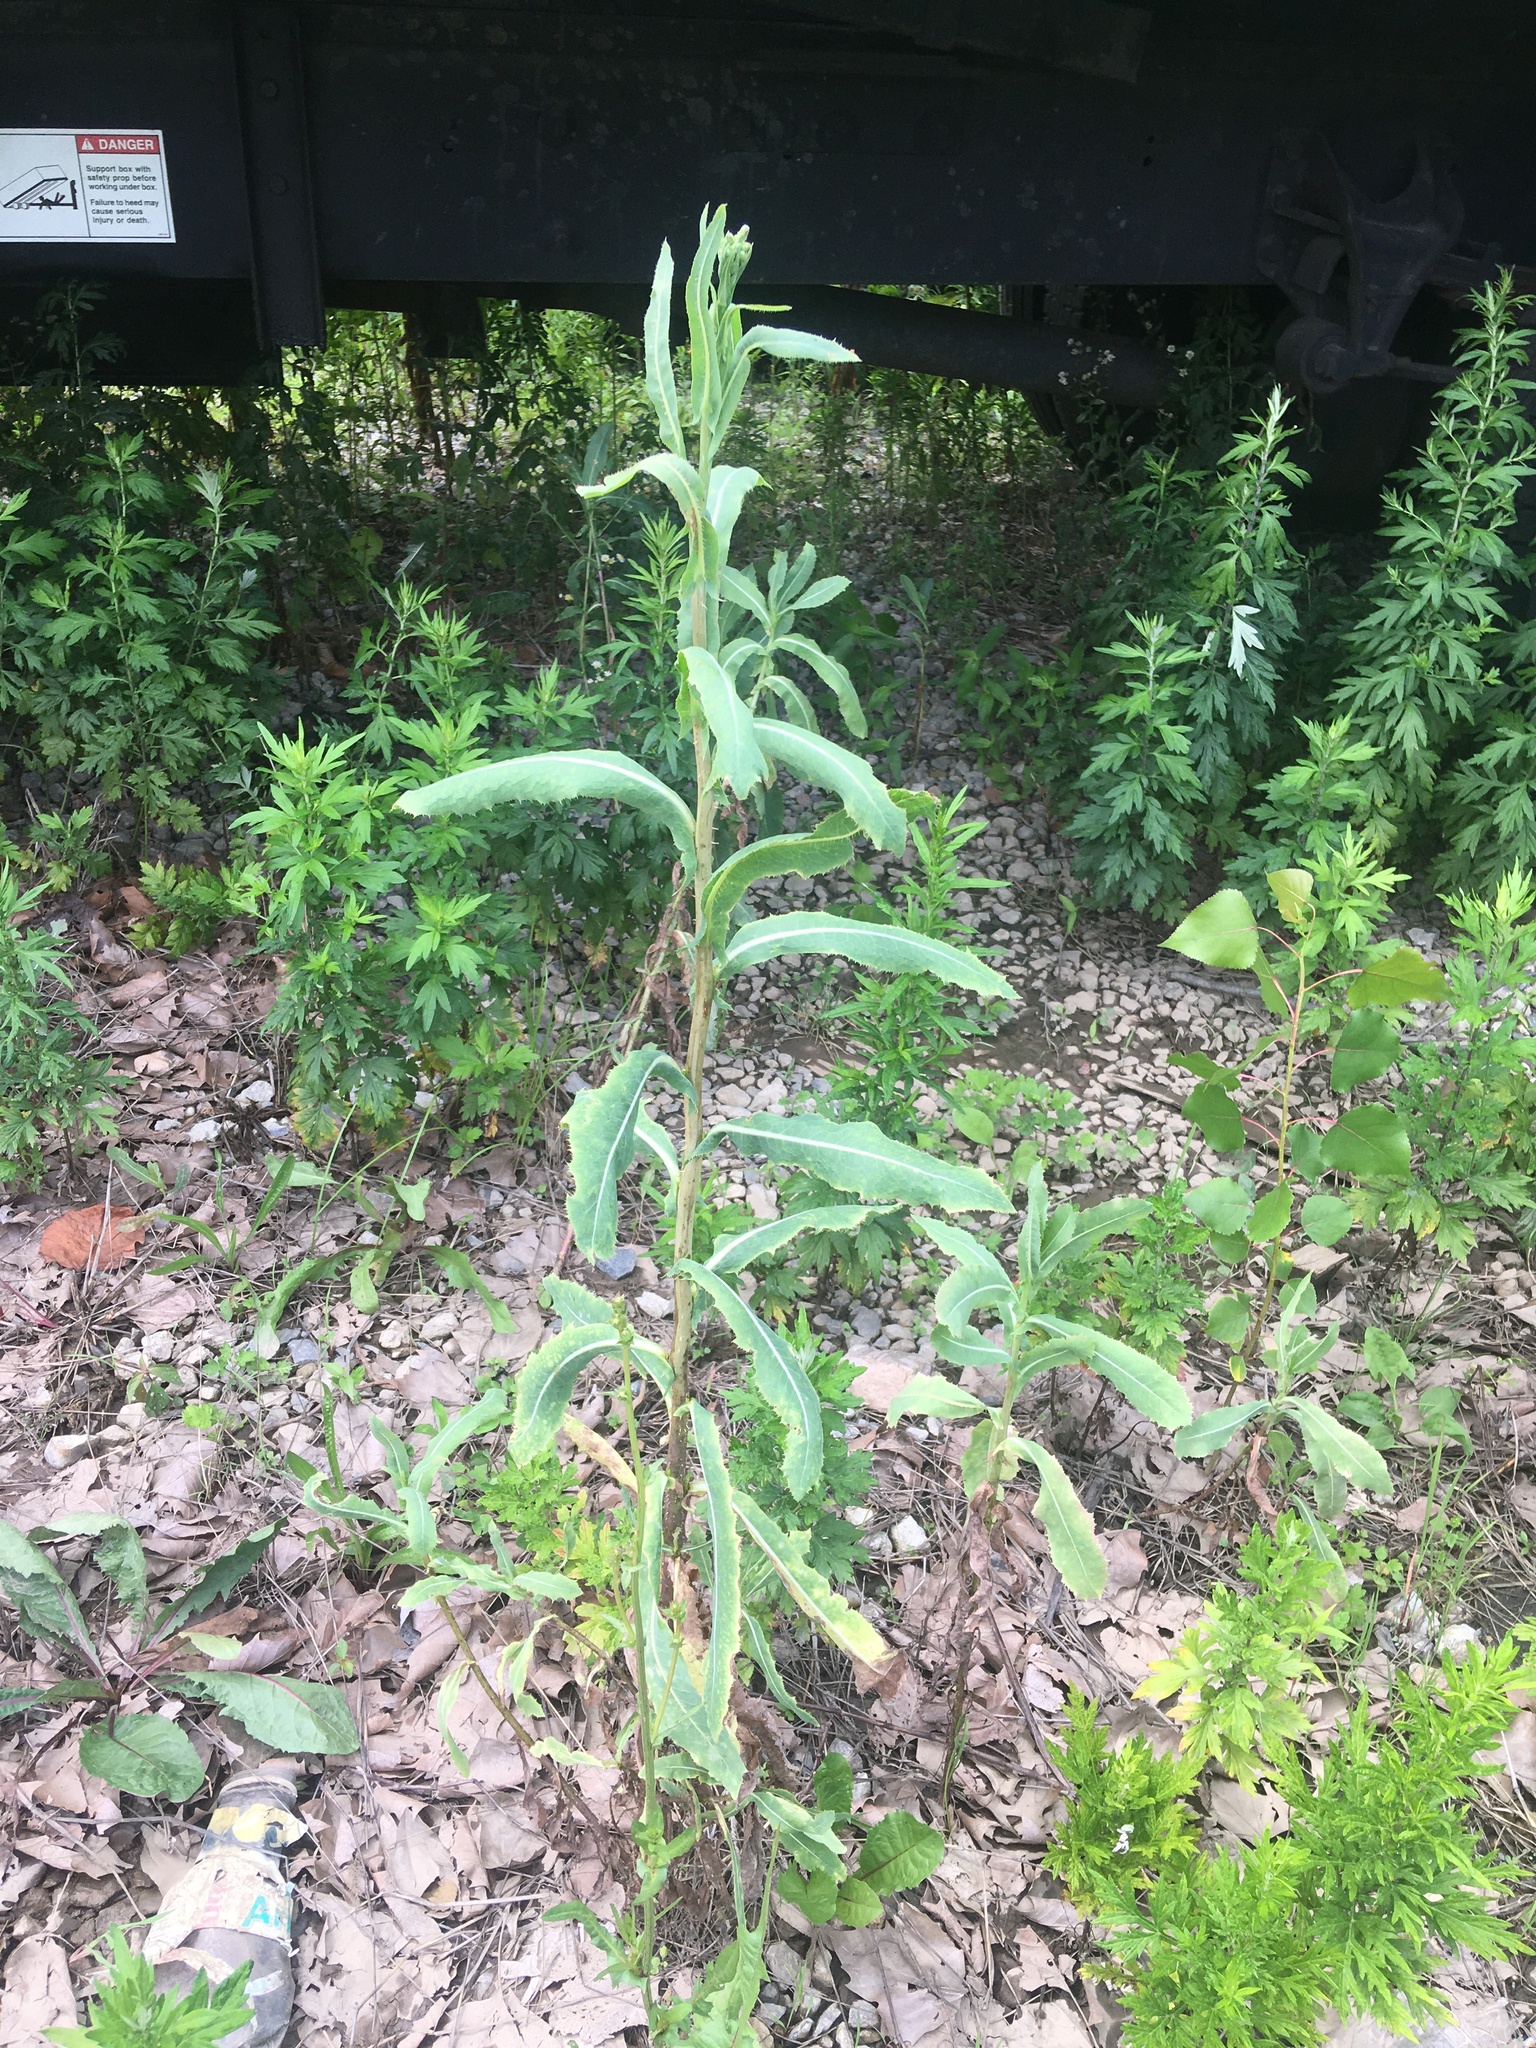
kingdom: Plantae
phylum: Tracheophyta
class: Magnoliopsida
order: Asterales
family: Asteraceae
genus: Lactuca
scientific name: Lactuca serriola
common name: Prickly lettuce
